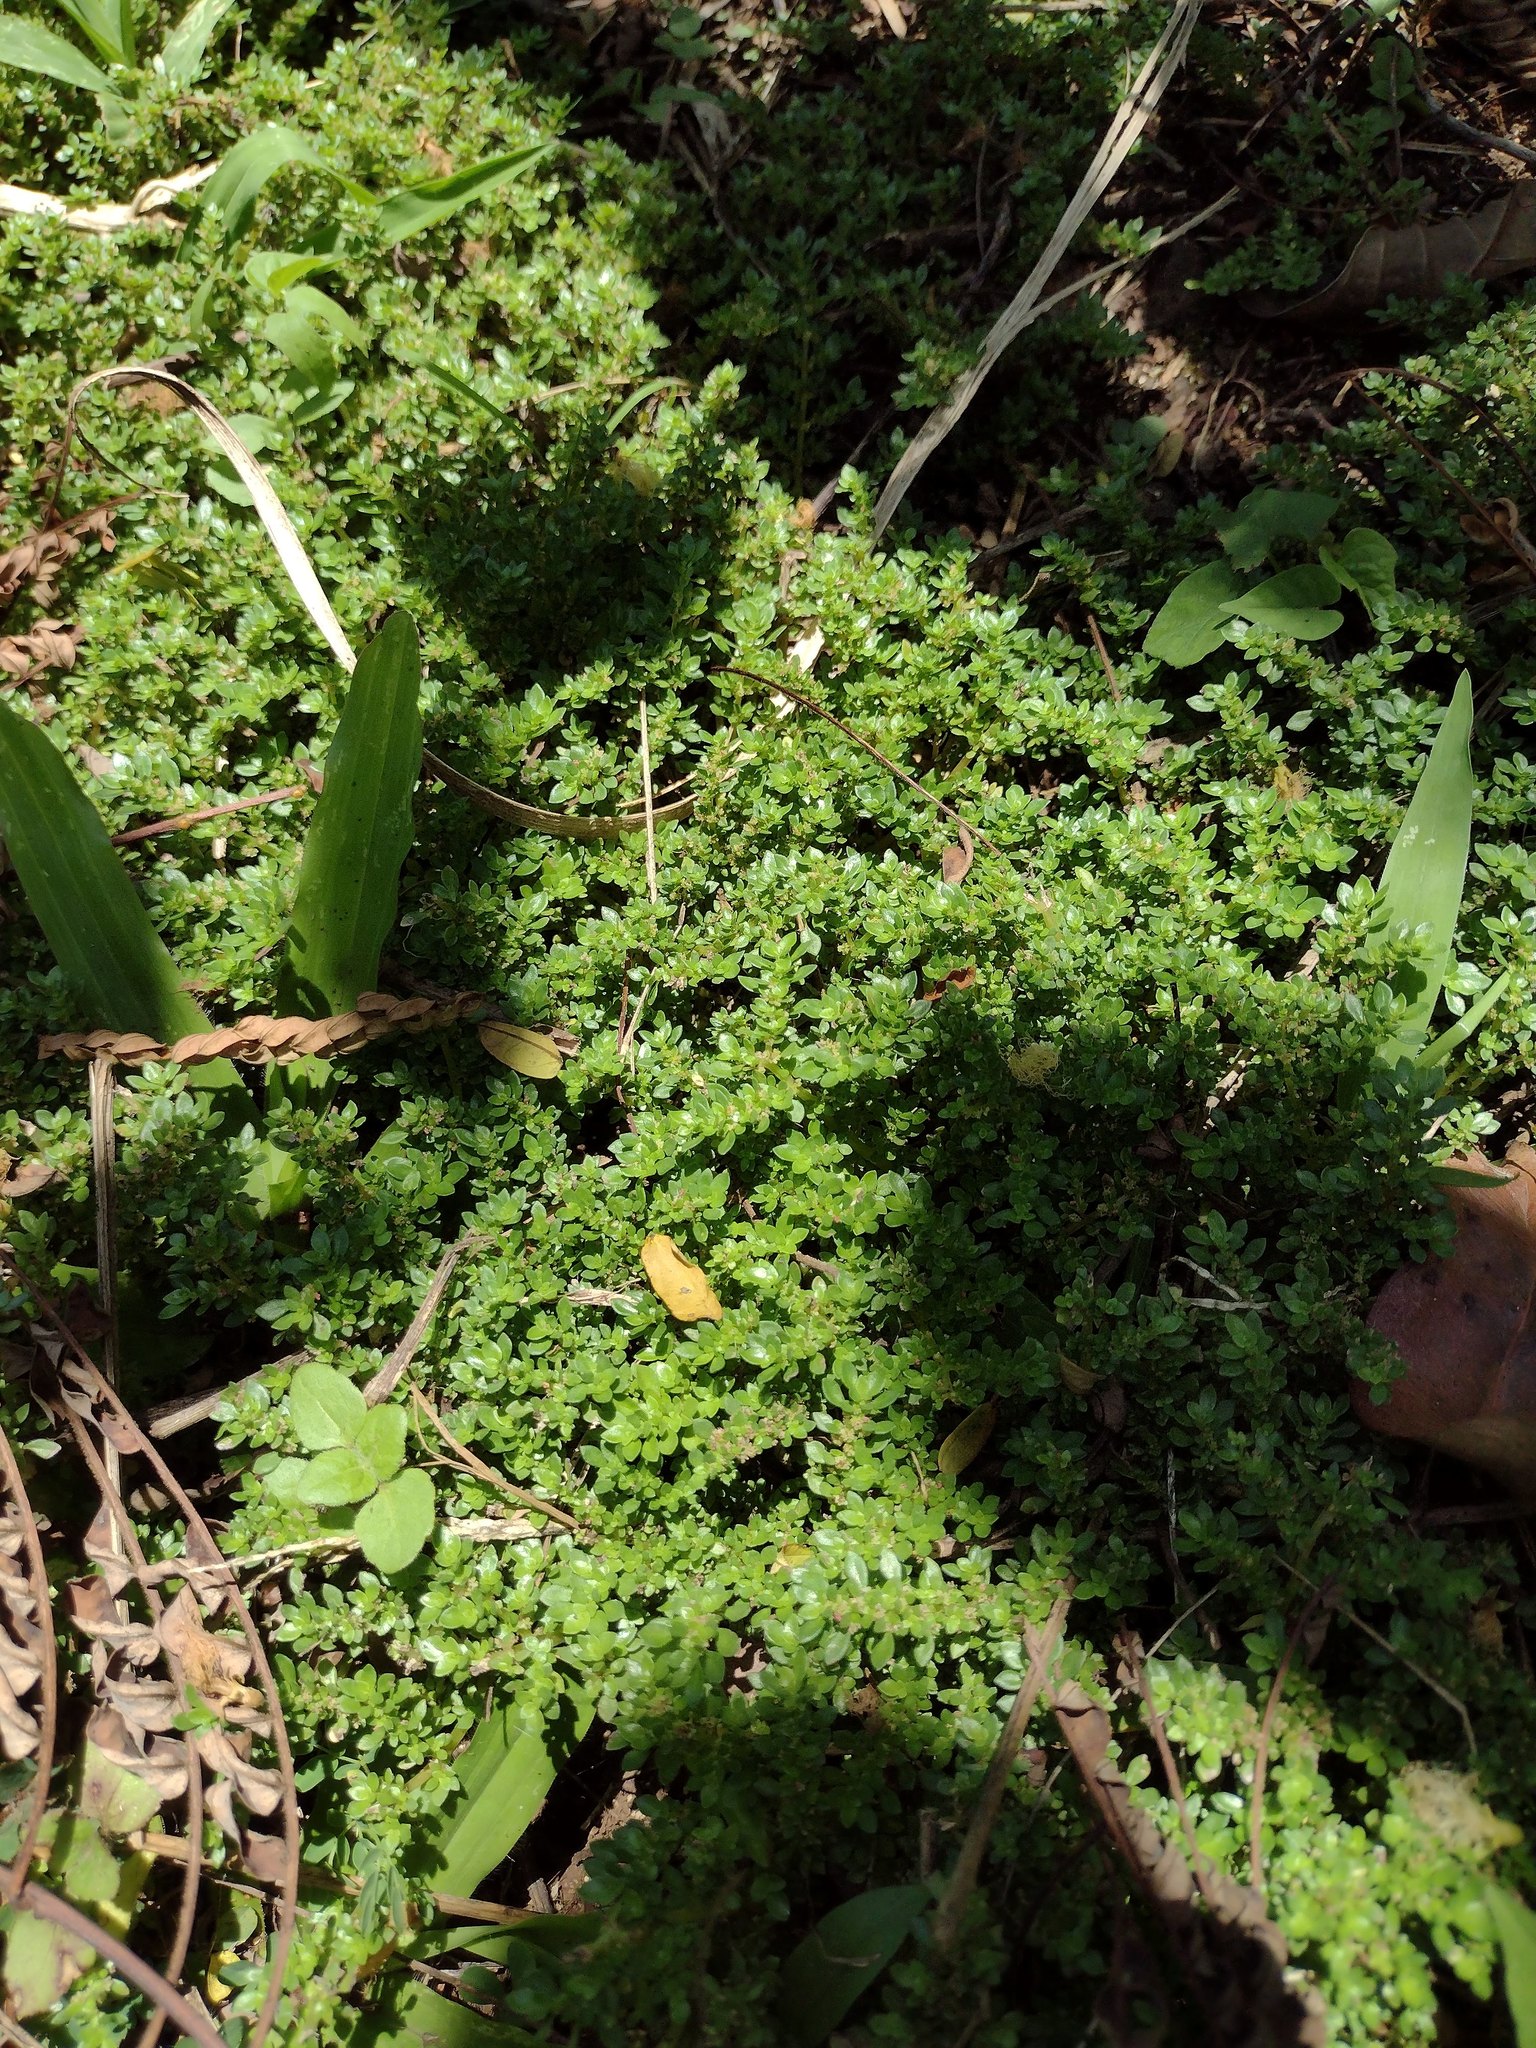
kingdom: Plantae
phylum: Tracheophyta
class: Magnoliopsida
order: Rosales
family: Urticaceae
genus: Pilea
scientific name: Pilea microphylla
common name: Artillery-plant
